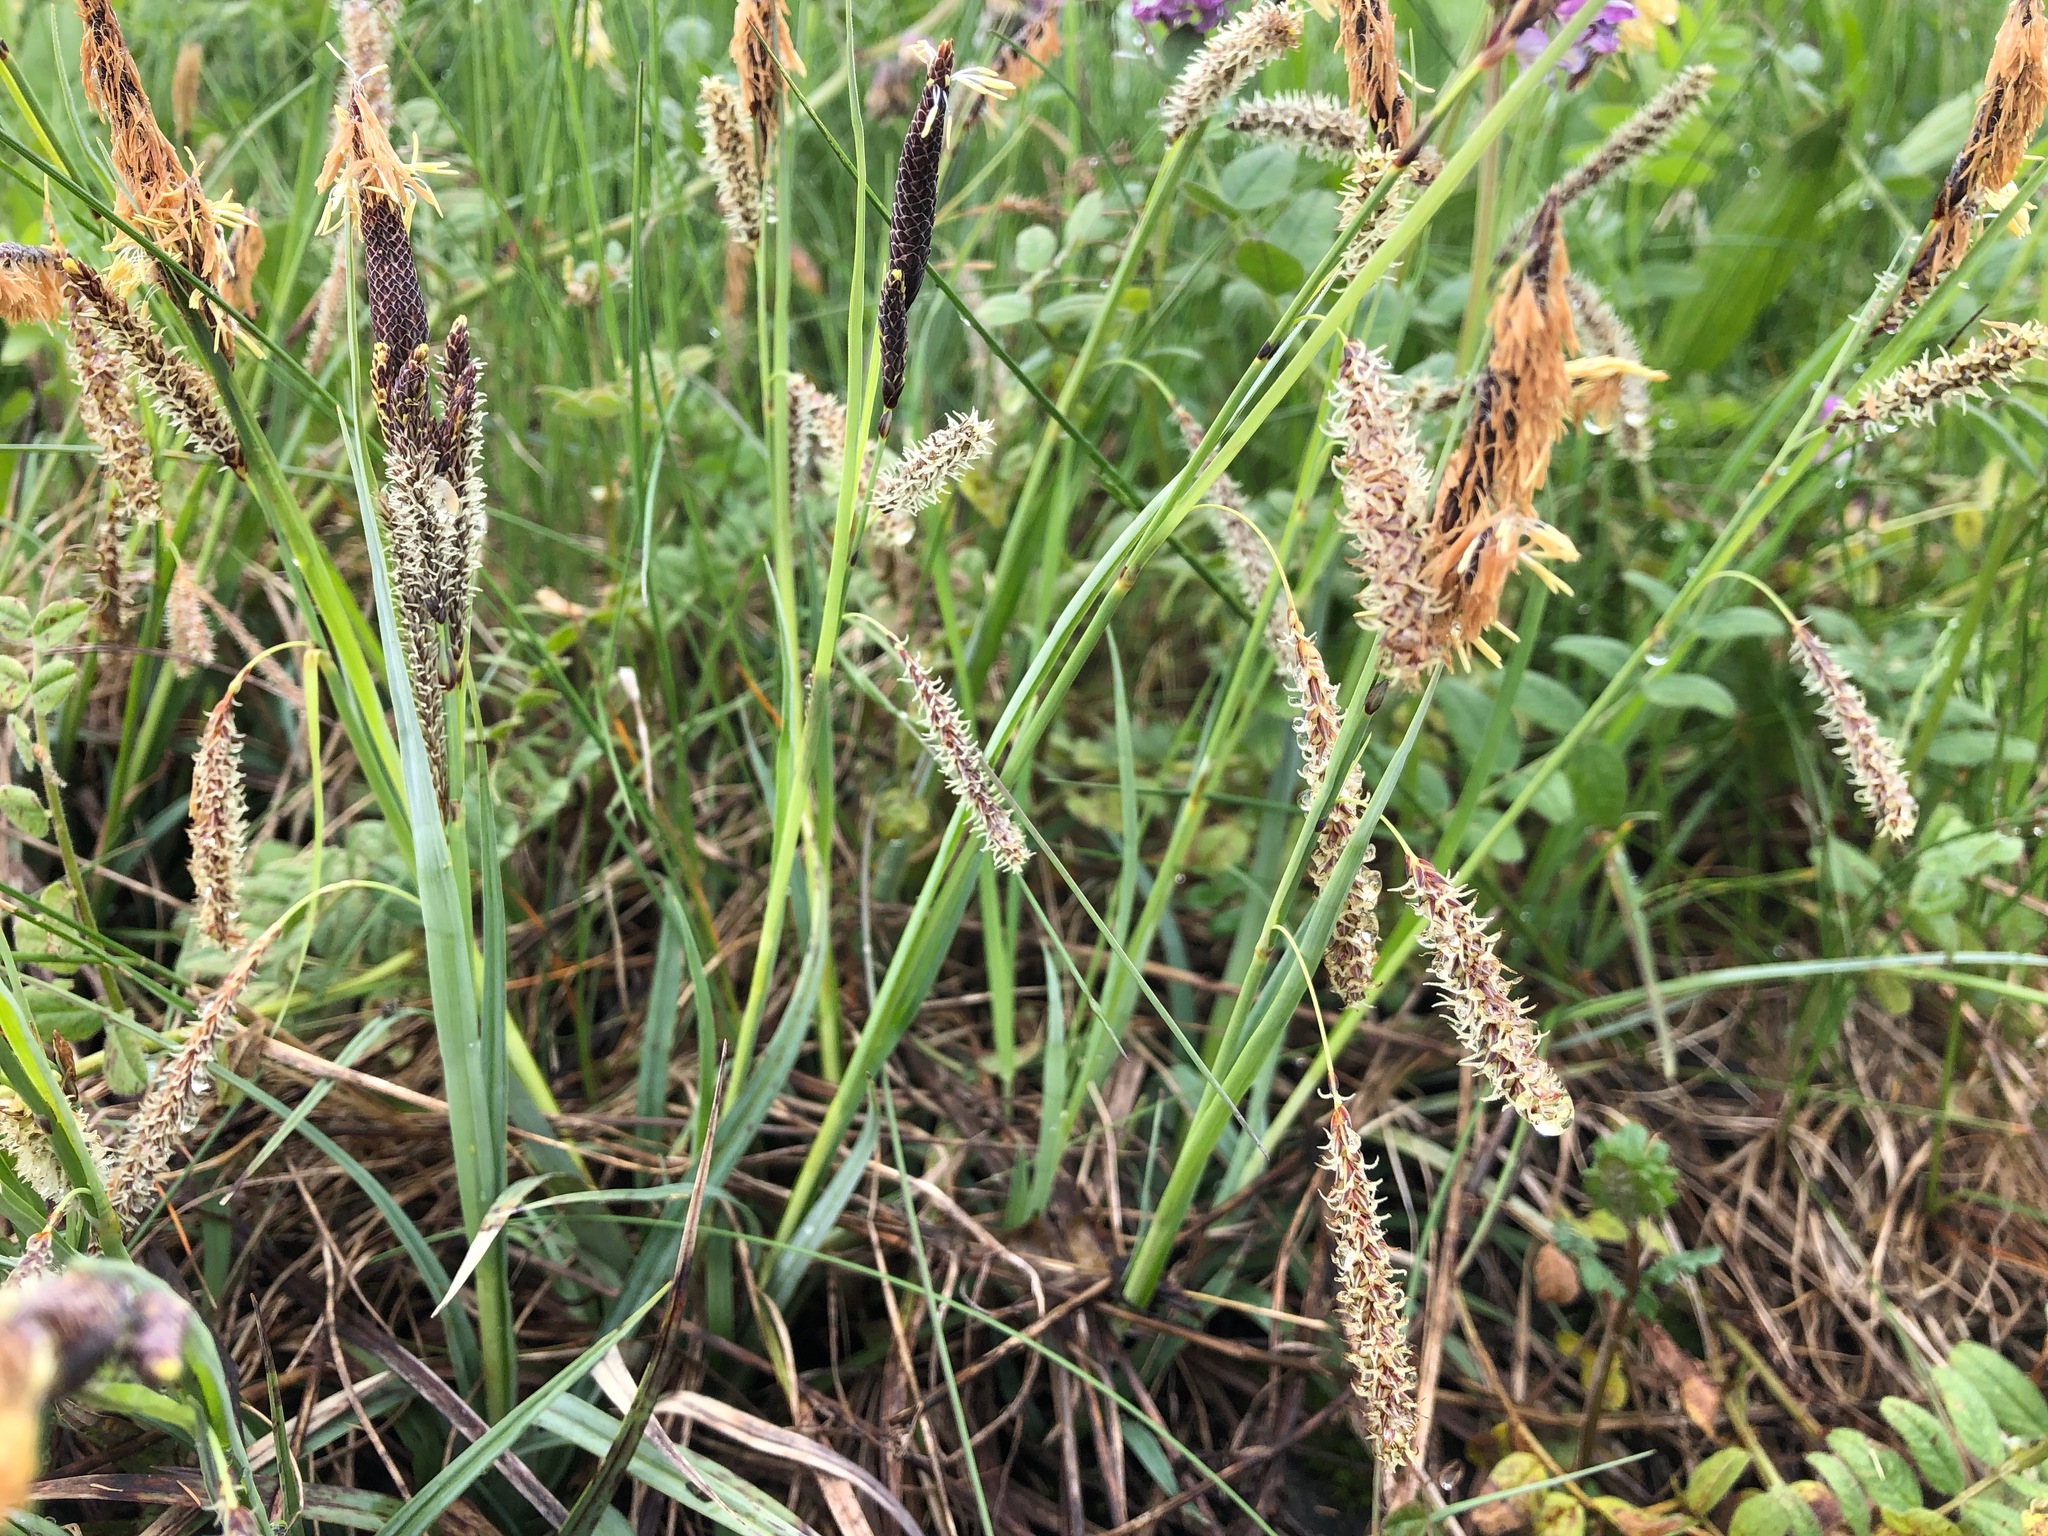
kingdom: Plantae
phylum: Tracheophyta
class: Liliopsida
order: Poales
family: Cyperaceae
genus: Carex
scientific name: Carex flacca
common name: Glaucous sedge
